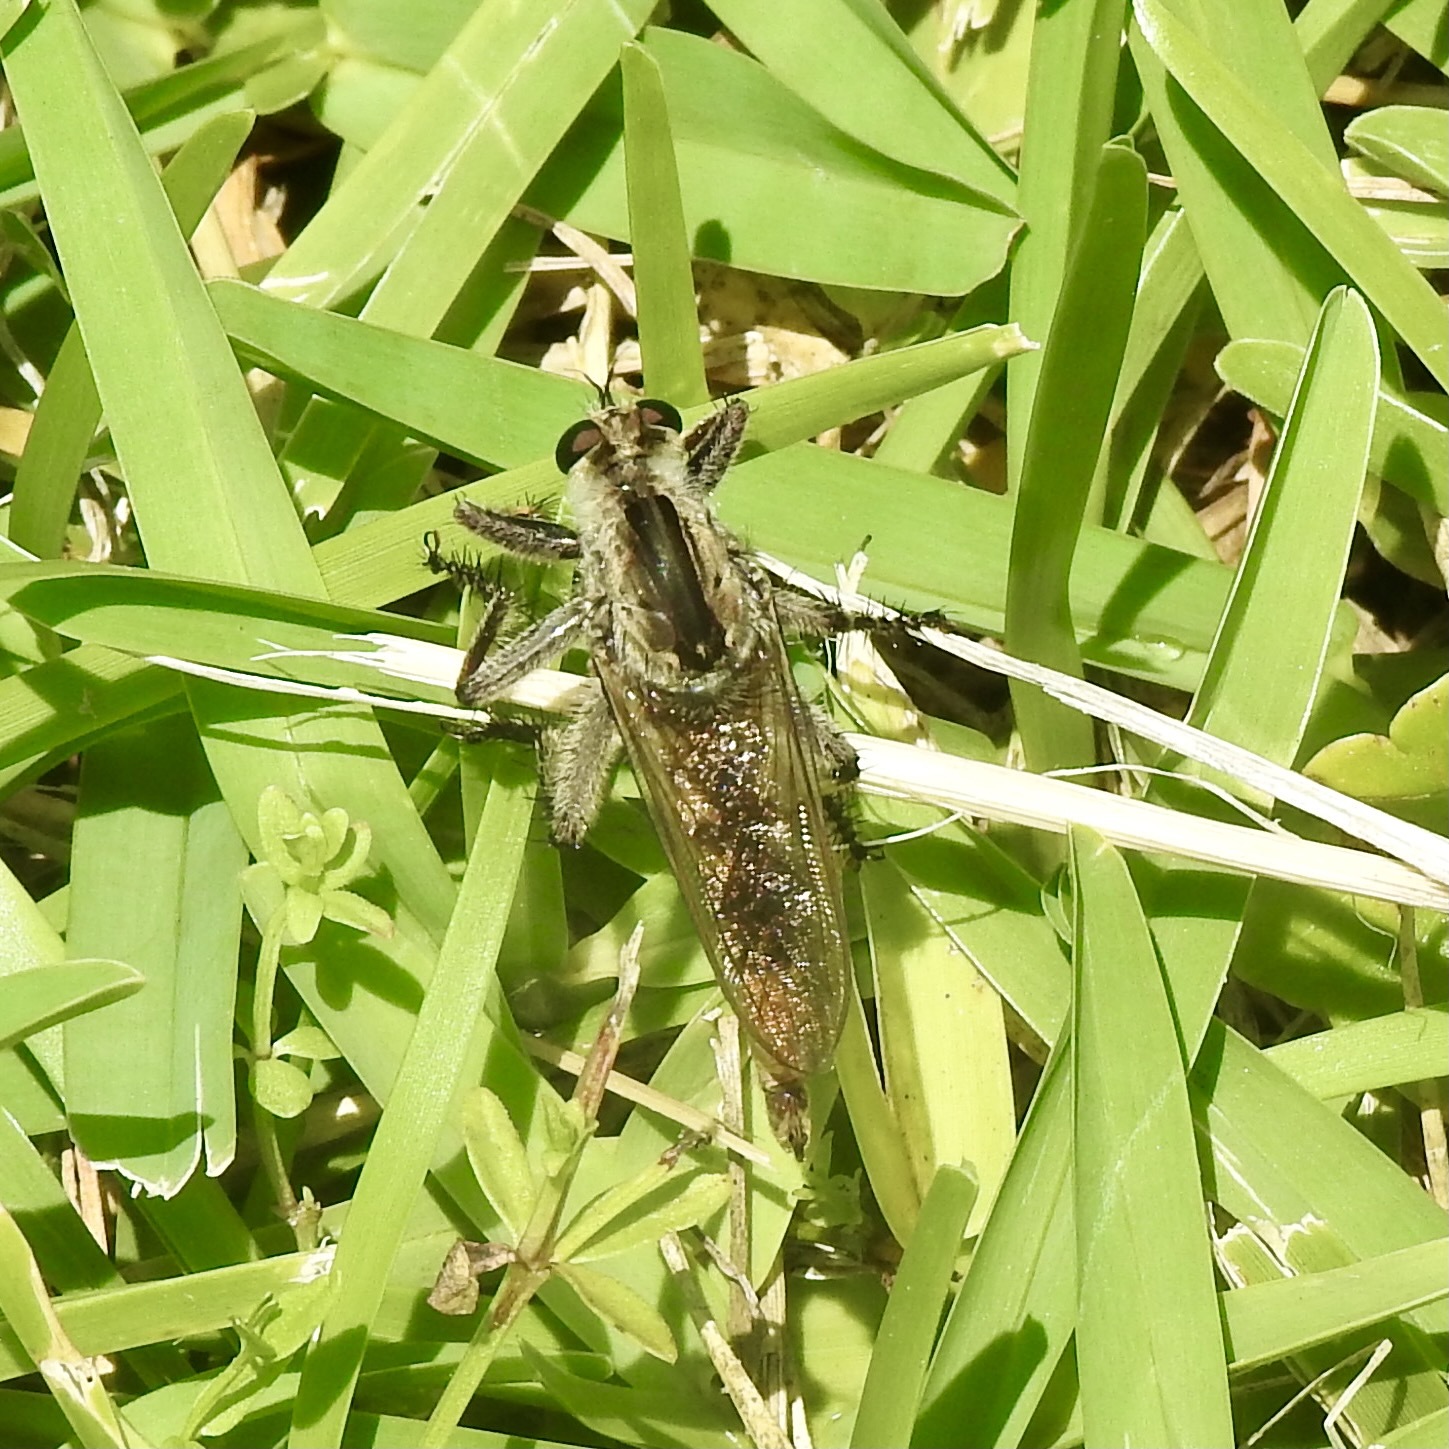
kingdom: Animalia
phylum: Arthropoda
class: Insecta
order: Diptera
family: Asilidae
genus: Triorla
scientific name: Triorla interrupta
